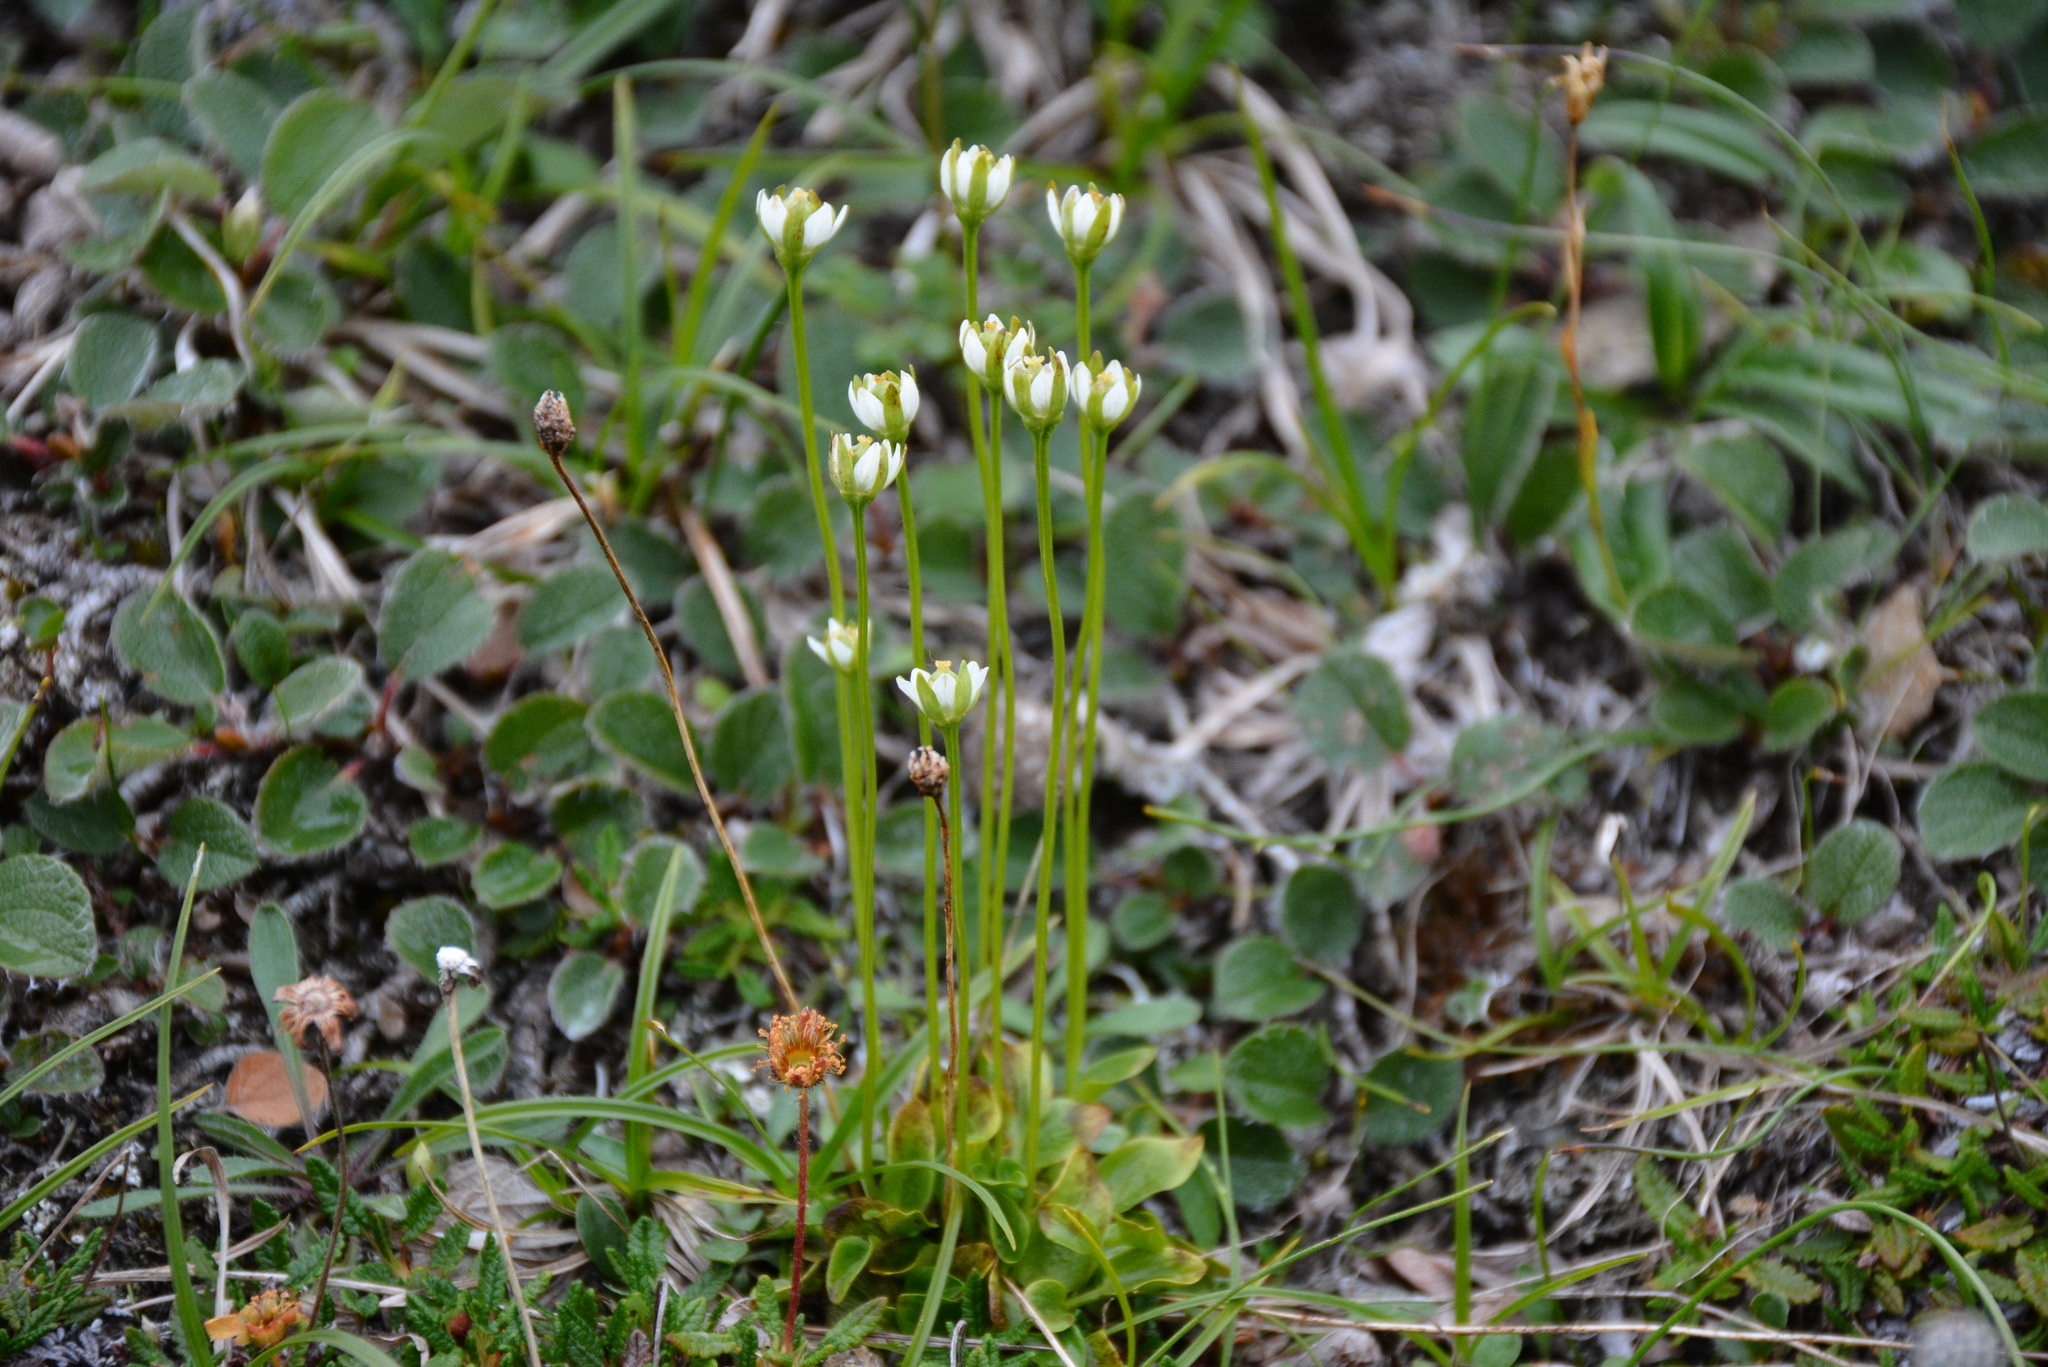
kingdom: Plantae
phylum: Tracheophyta
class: Magnoliopsida
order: Celastrales
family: Parnassiaceae
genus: Parnassia
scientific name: Parnassia kotzebuei
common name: Kotzebue's grass-of-parnassus
